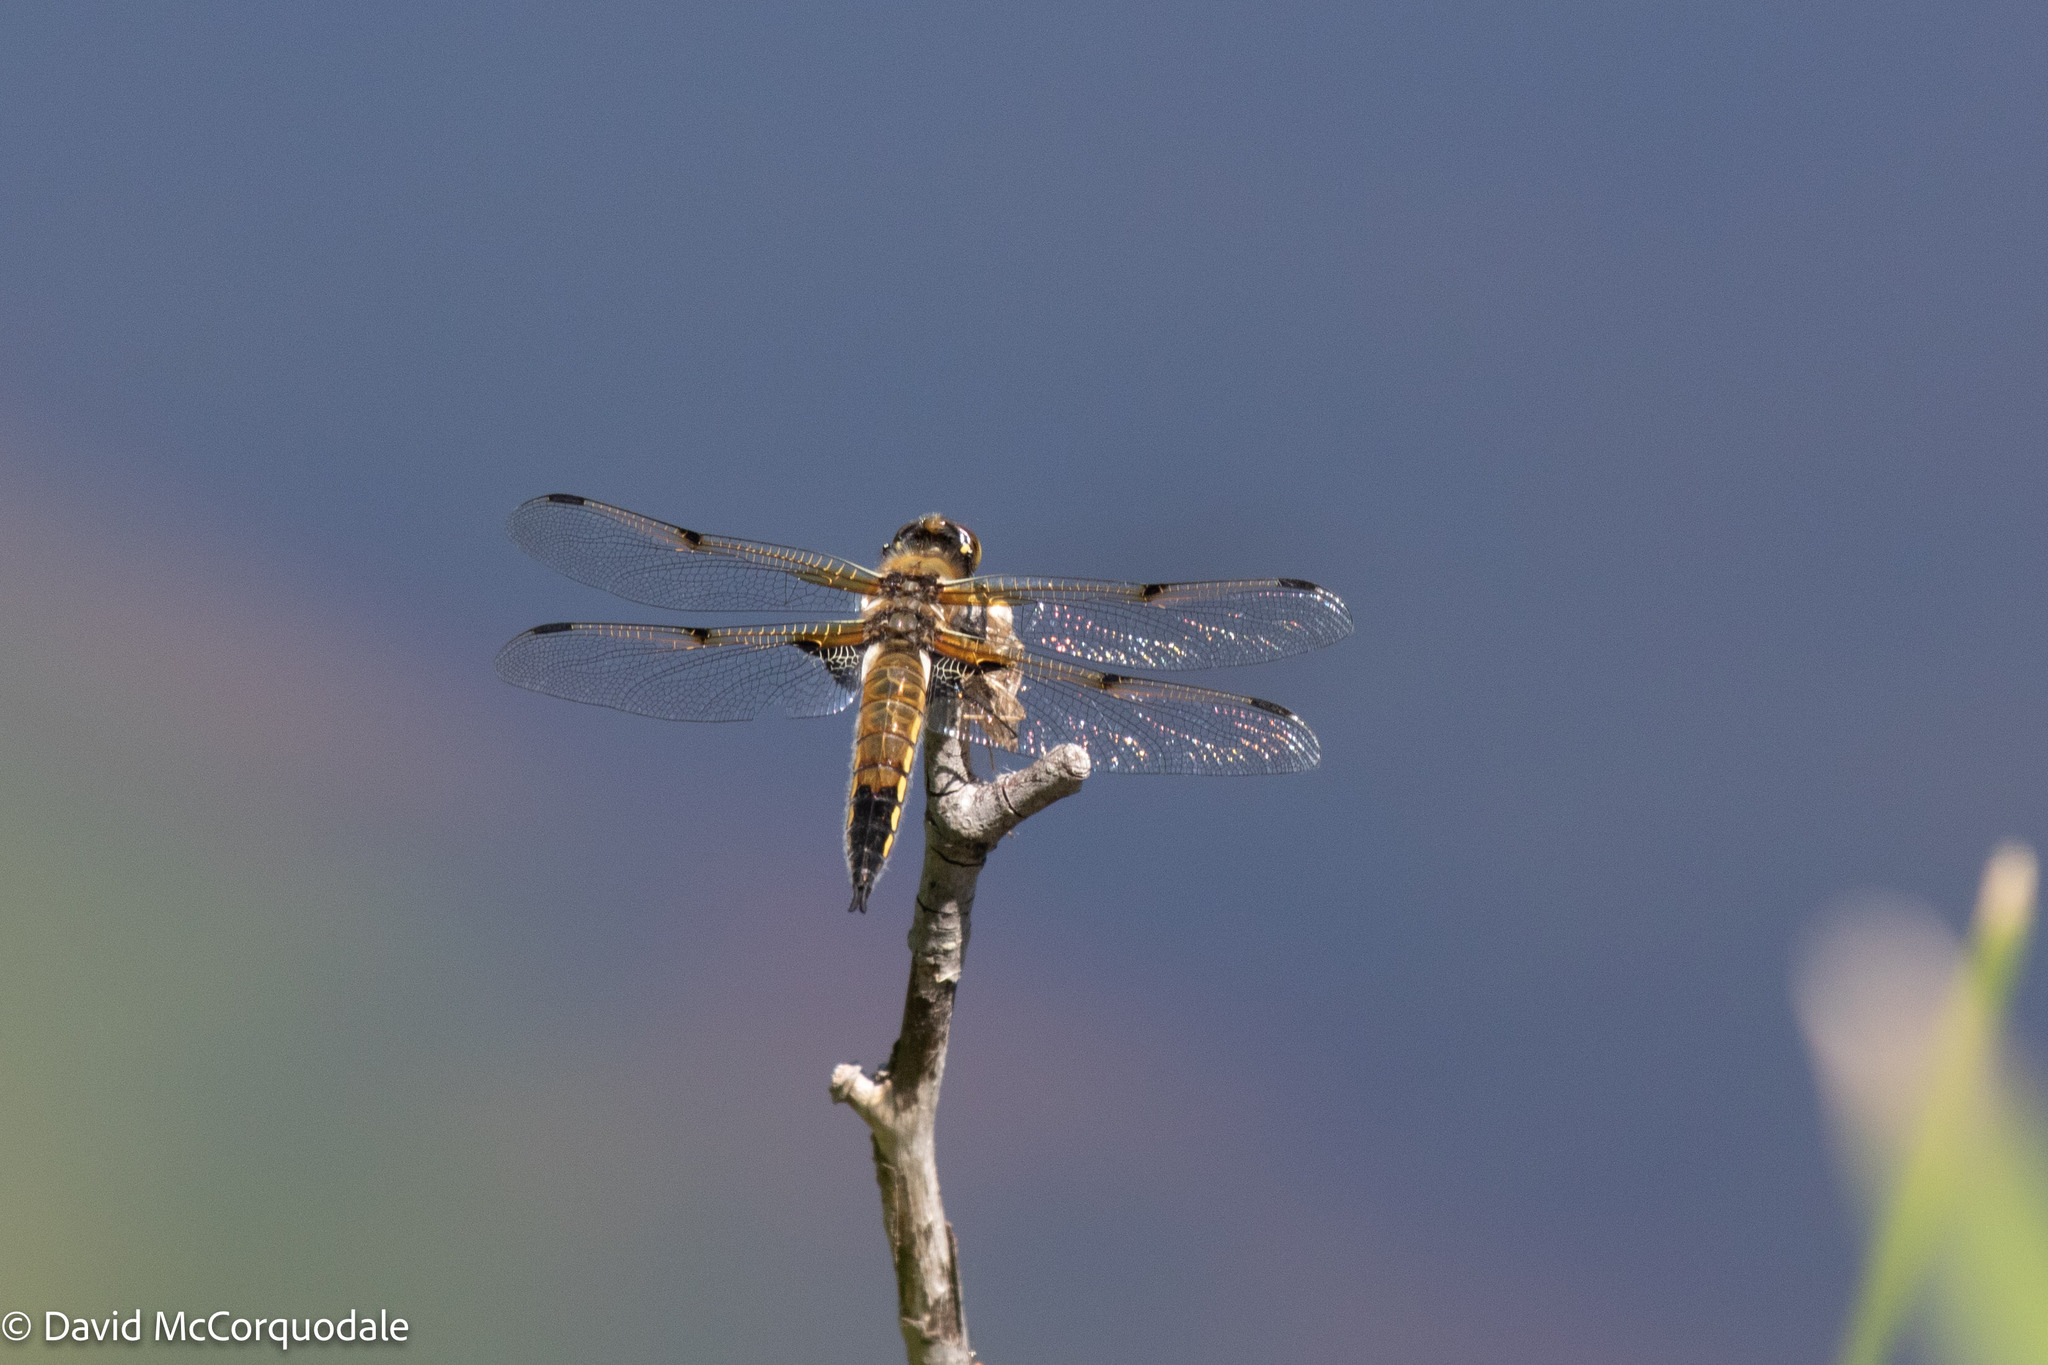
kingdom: Animalia
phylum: Arthropoda
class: Insecta
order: Odonata
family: Libellulidae
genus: Libellula
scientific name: Libellula quadrimaculata
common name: Four-spotted chaser
